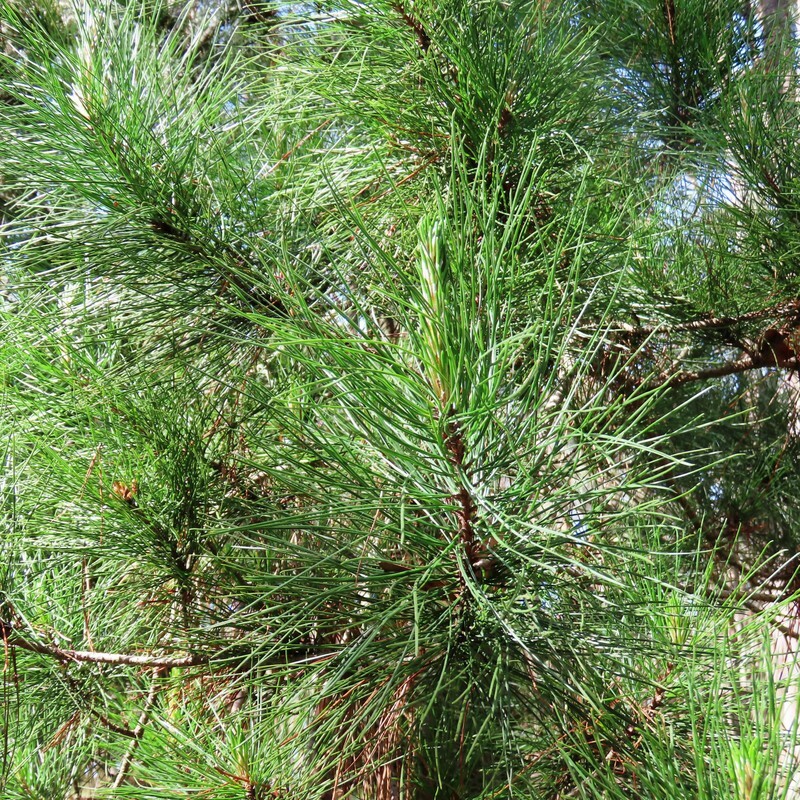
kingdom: Plantae
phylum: Tracheophyta
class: Pinopsida
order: Pinales
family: Pinaceae
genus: Pinus
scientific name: Pinus radiata
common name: Monterey pine
